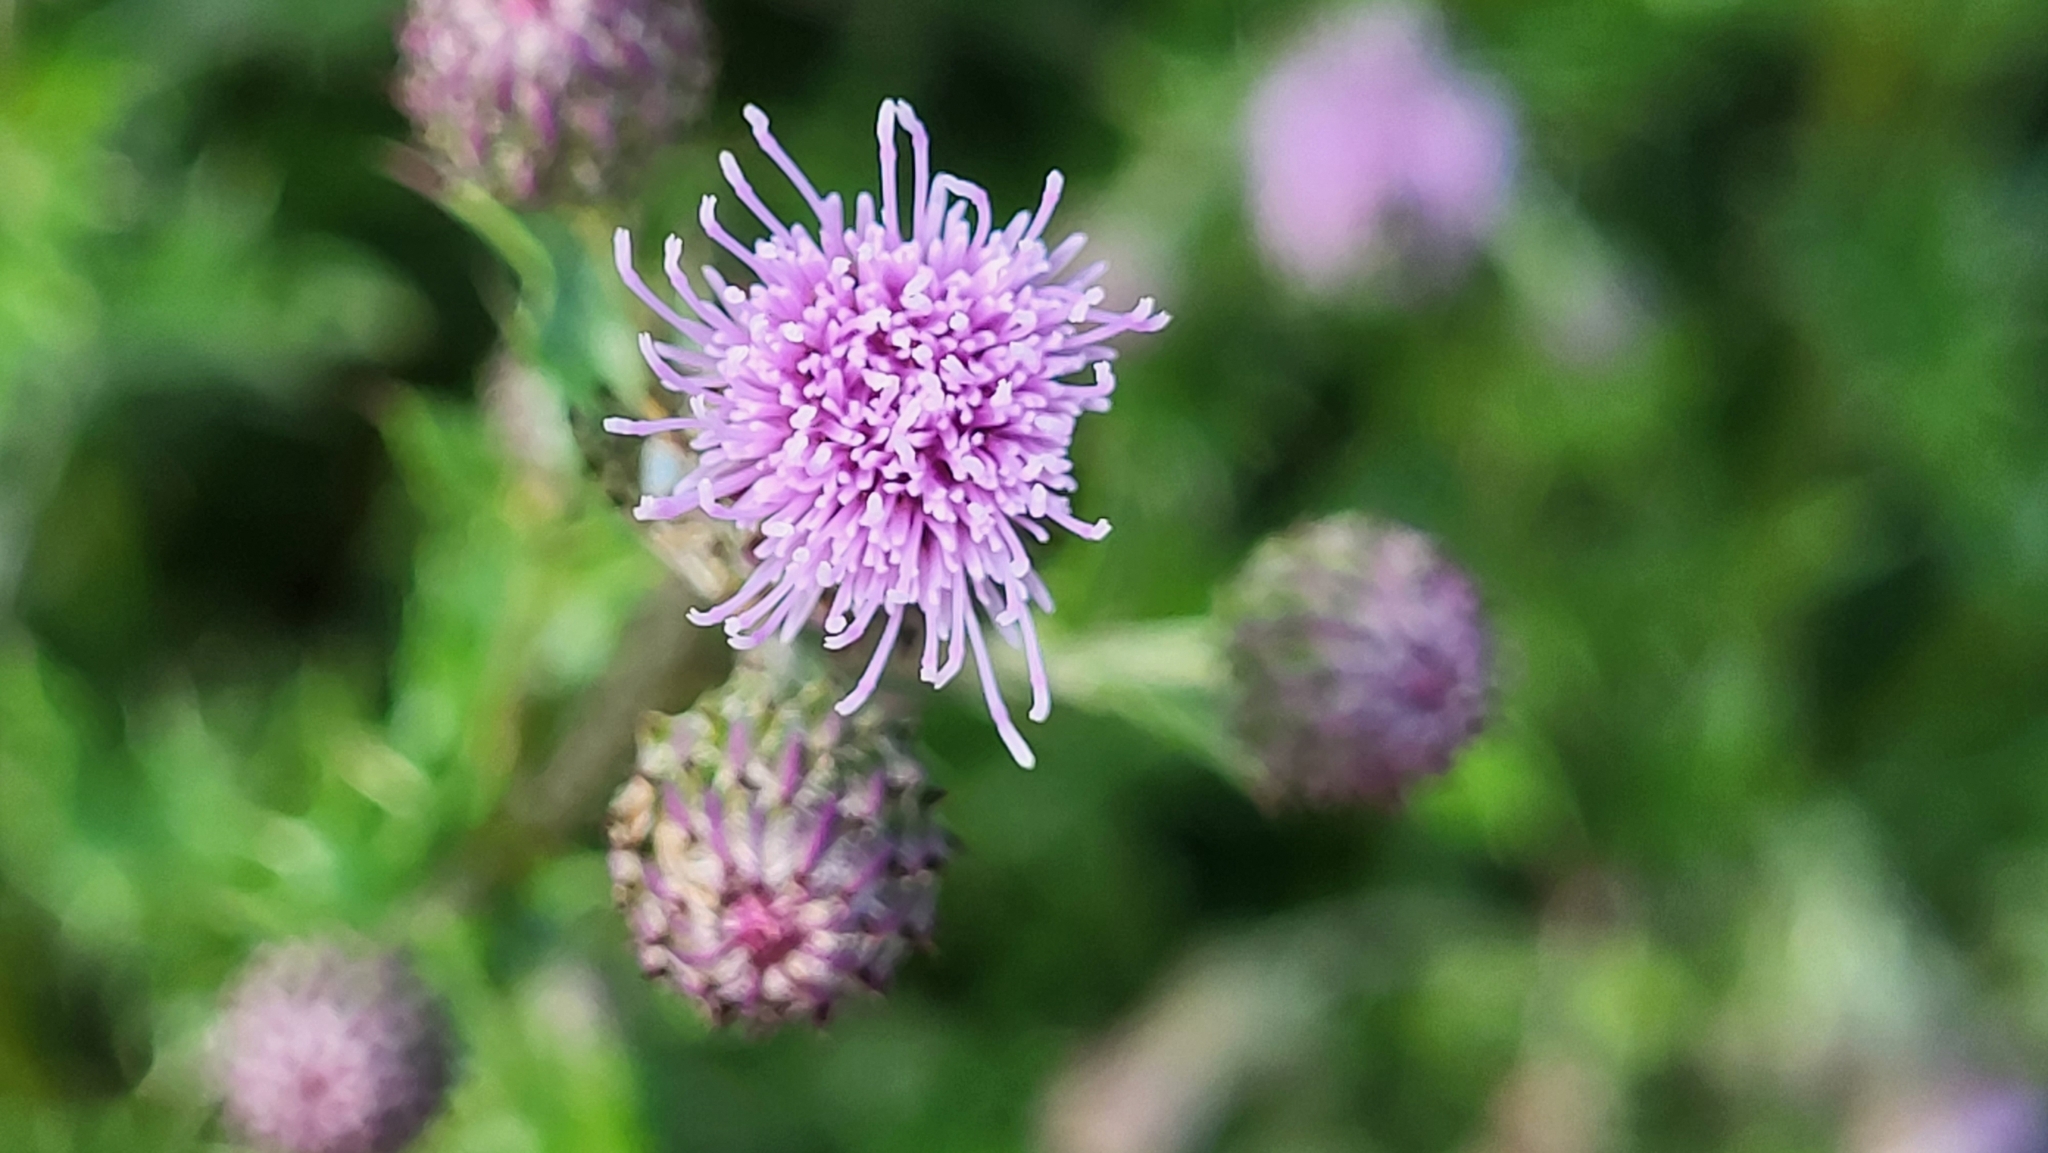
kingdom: Plantae
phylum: Tracheophyta
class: Magnoliopsida
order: Asterales
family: Asteraceae
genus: Cirsium
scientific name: Cirsium arvense
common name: Creeping thistle
